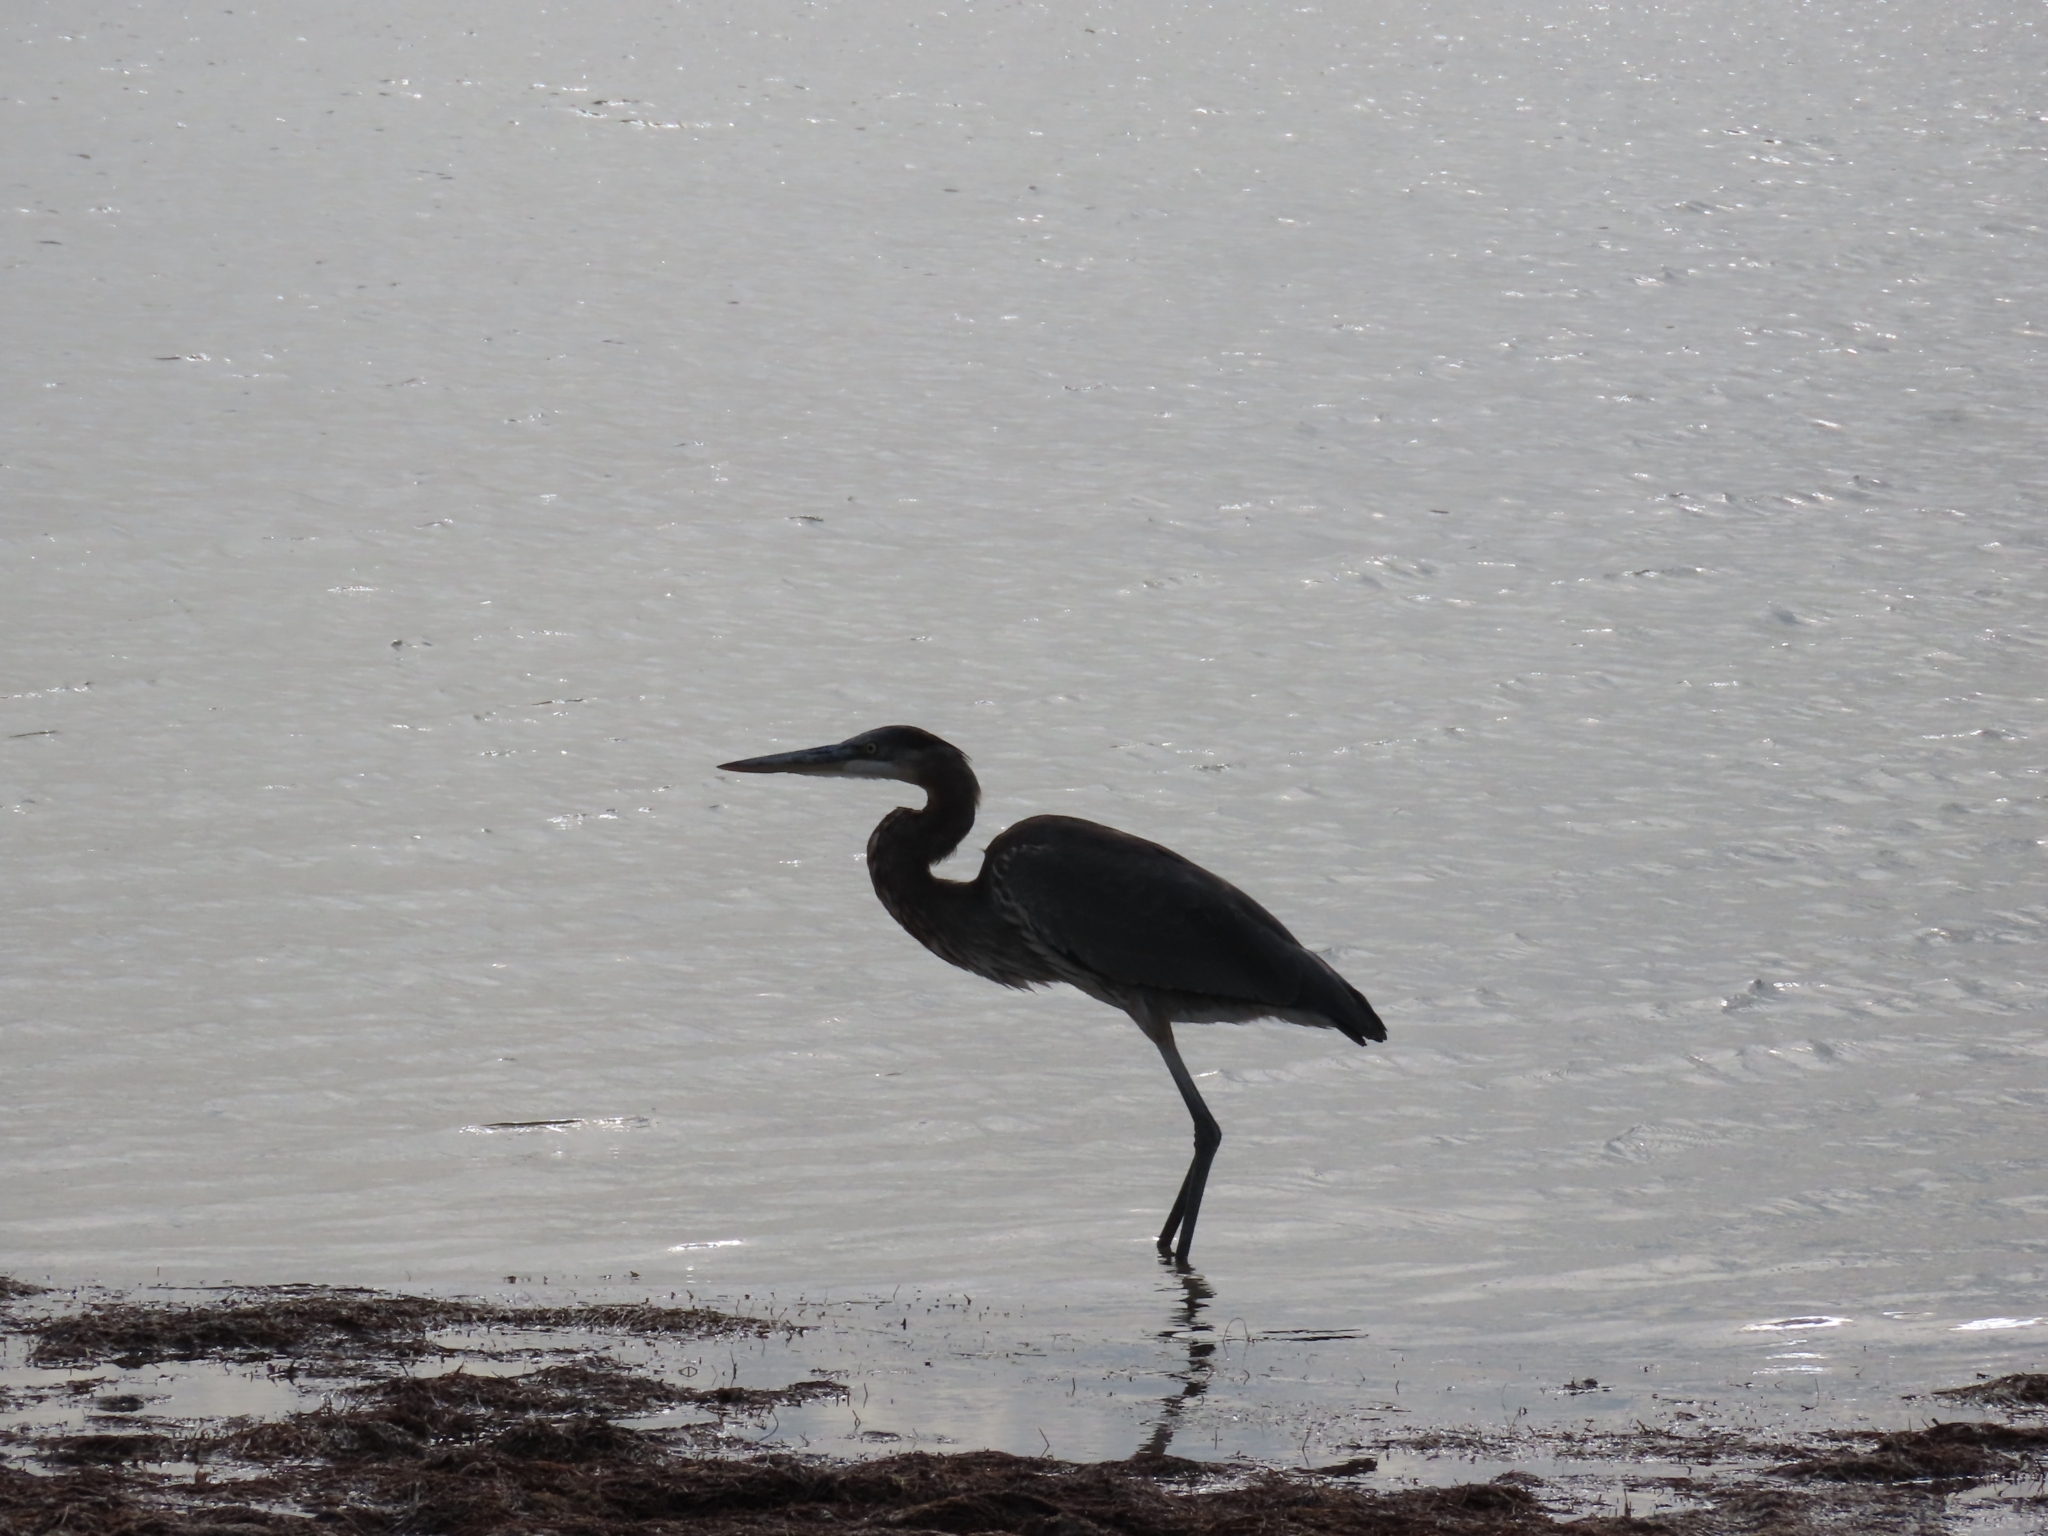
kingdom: Animalia
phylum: Chordata
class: Aves
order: Pelecaniformes
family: Ardeidae
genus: Ardea
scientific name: Ardea herodias
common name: Great blue heron
